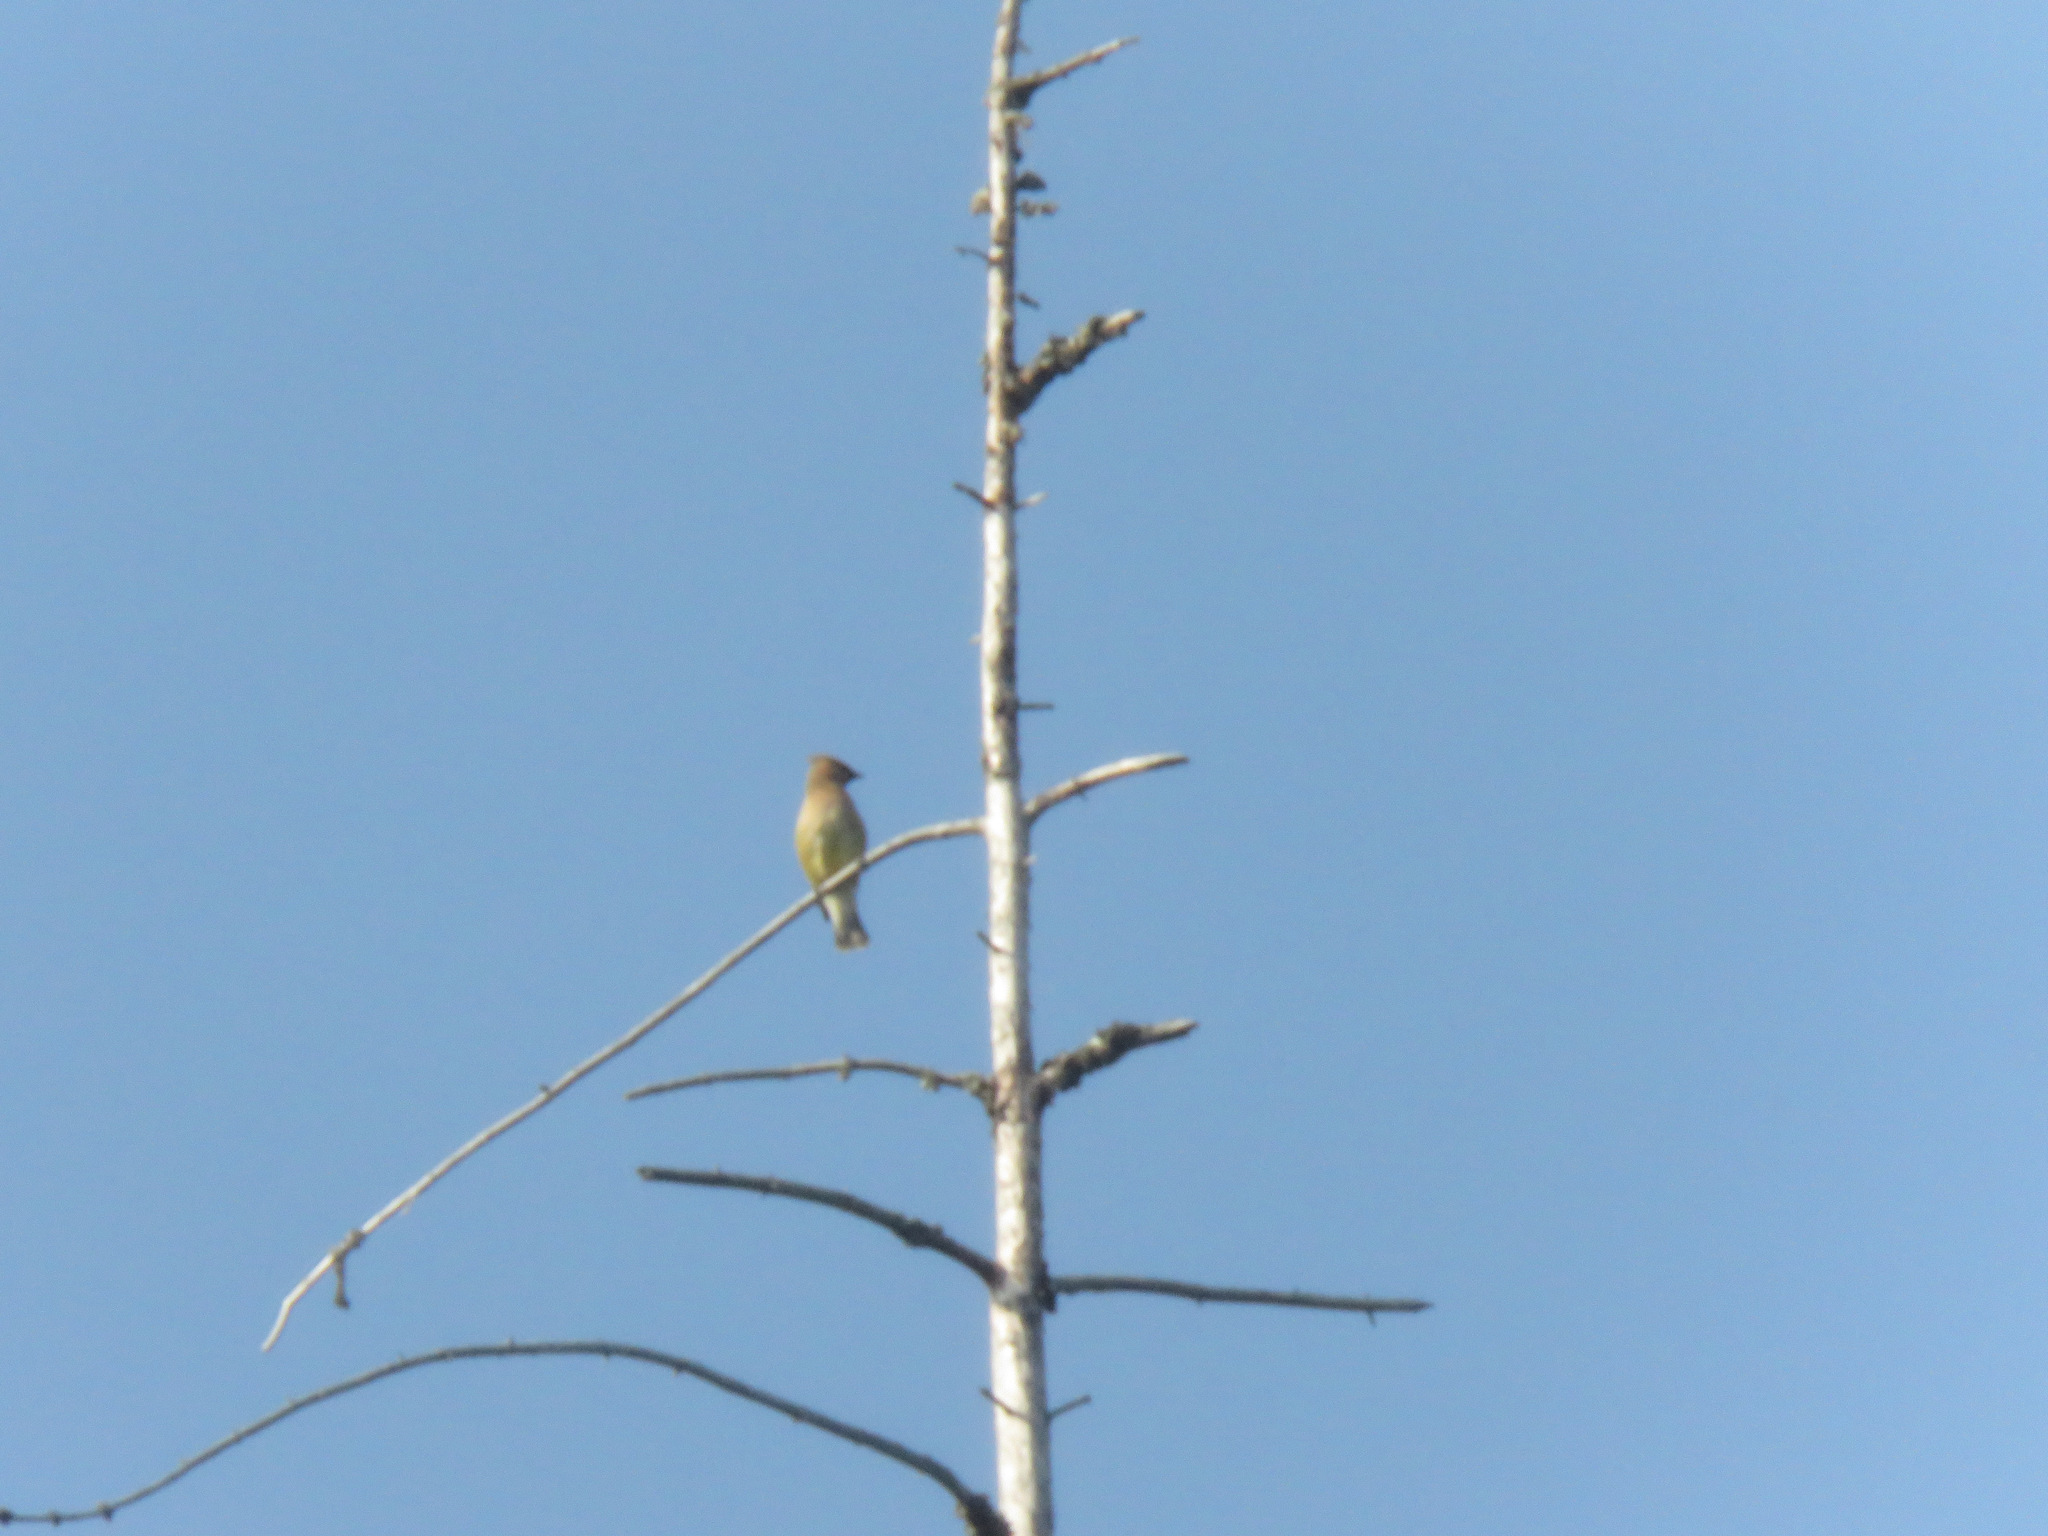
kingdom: Animalia
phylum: Chordata
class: Aves
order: Passeriformes
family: Bombycillidae
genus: Bombycilla
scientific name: Bombycilla cedrorum
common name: Cedar waxwing
